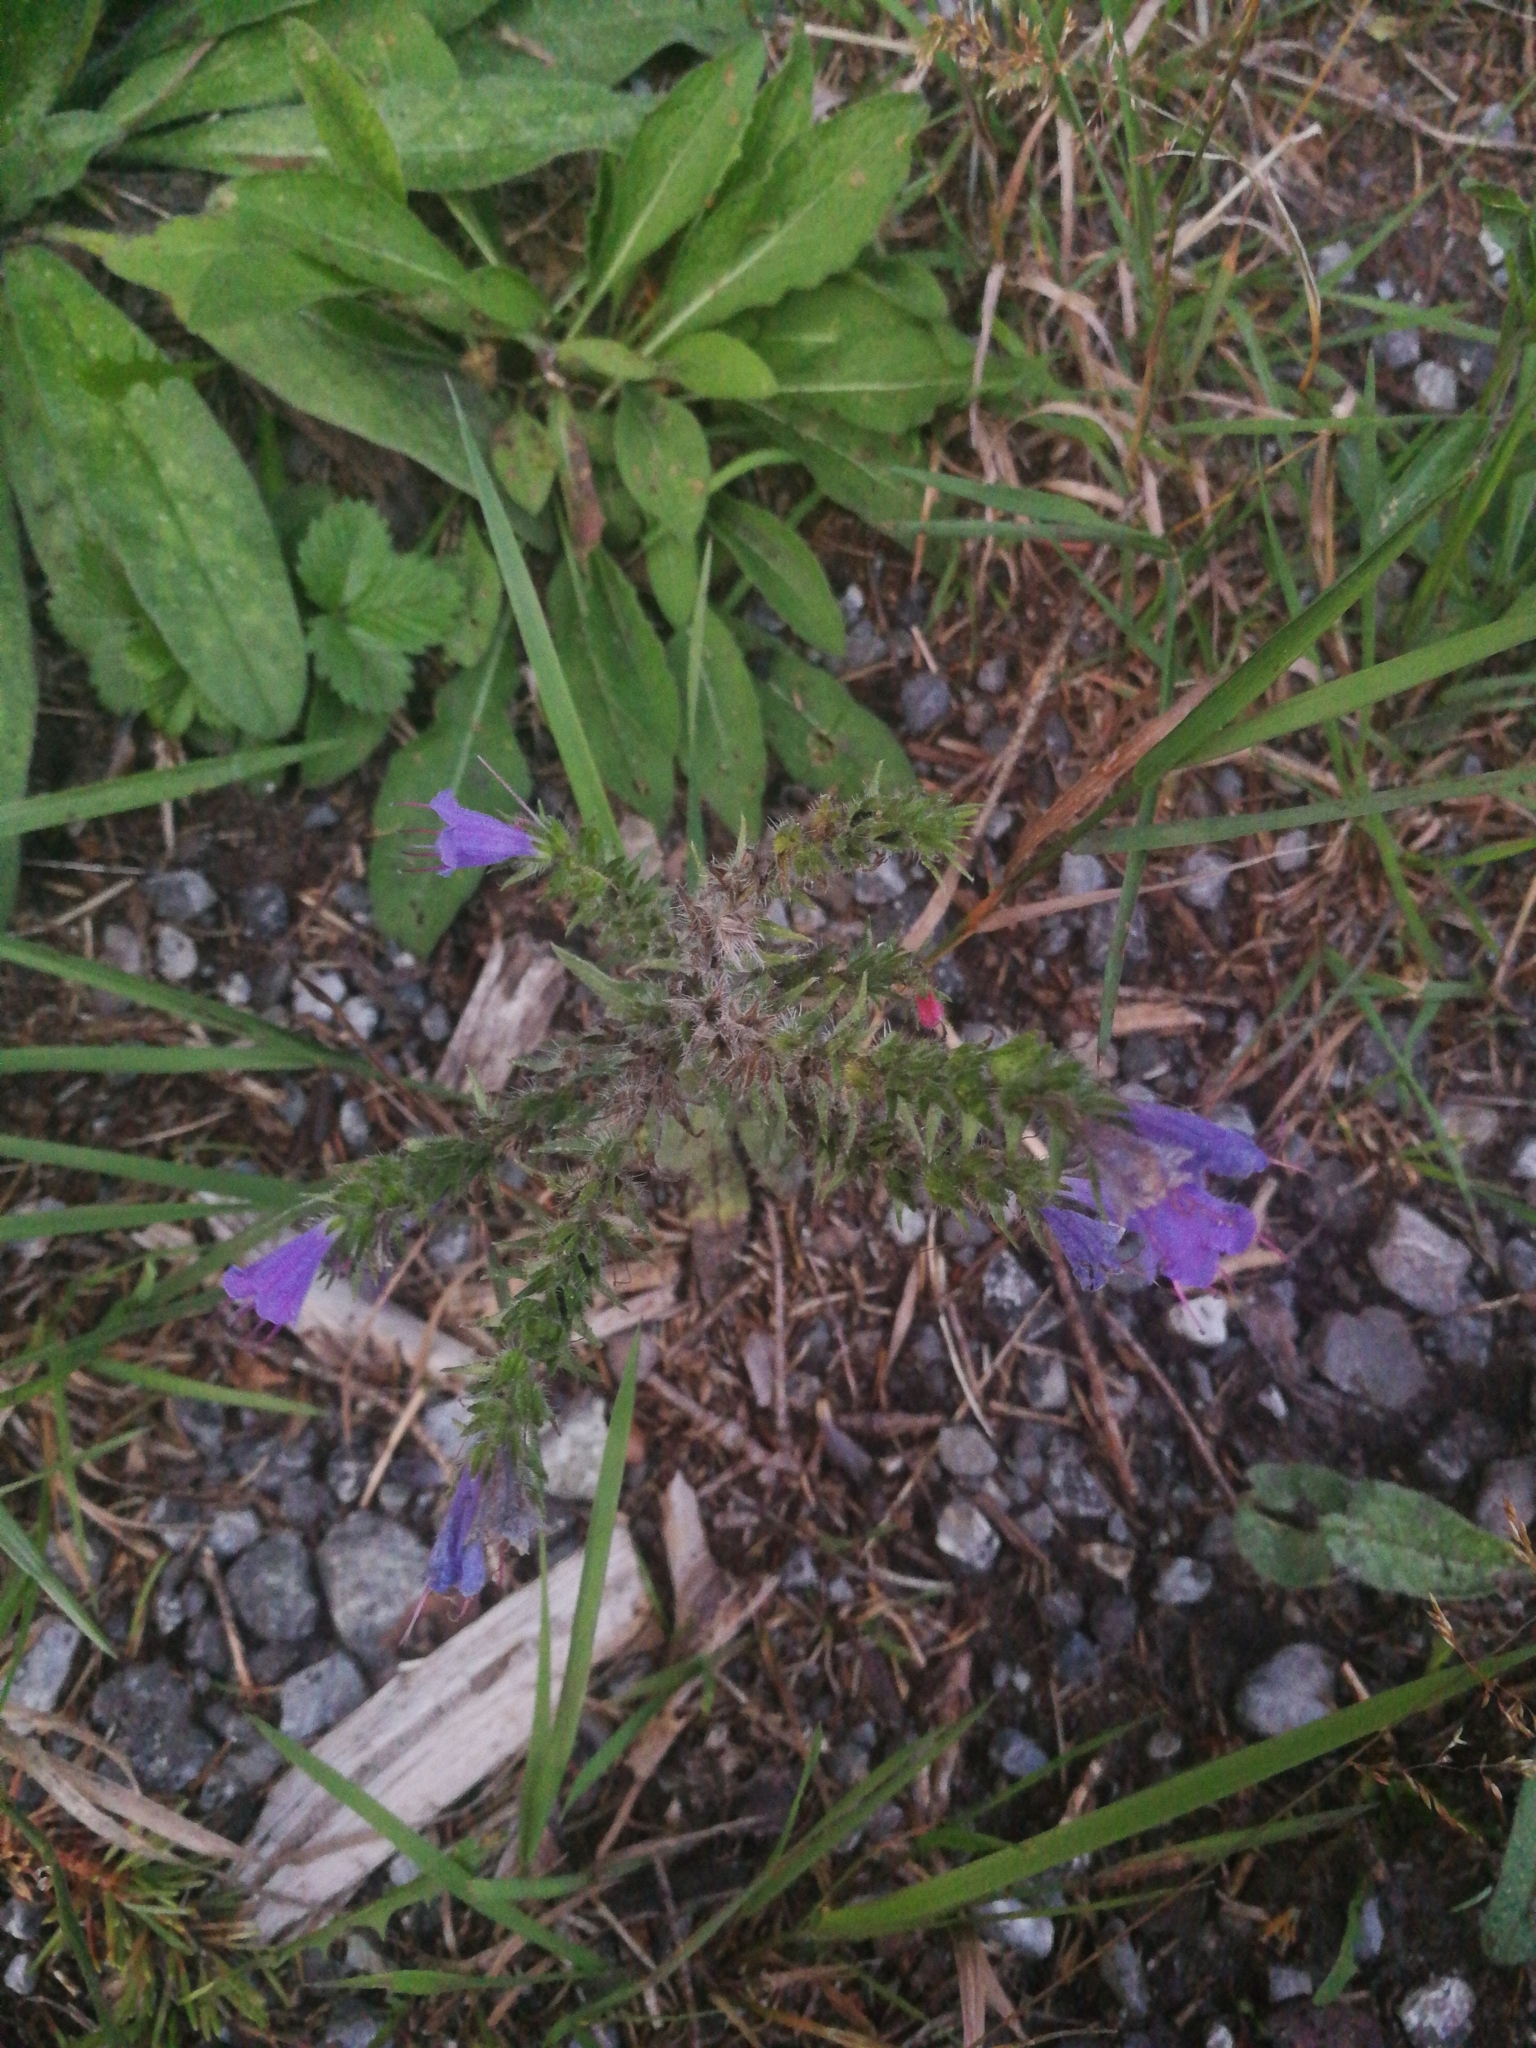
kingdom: Plantae
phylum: Tracheophyta
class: Magnoliopsida
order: Boraginales
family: Boraginaceae
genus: Echium
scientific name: Echium vulgare
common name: Common viper's bugloss
